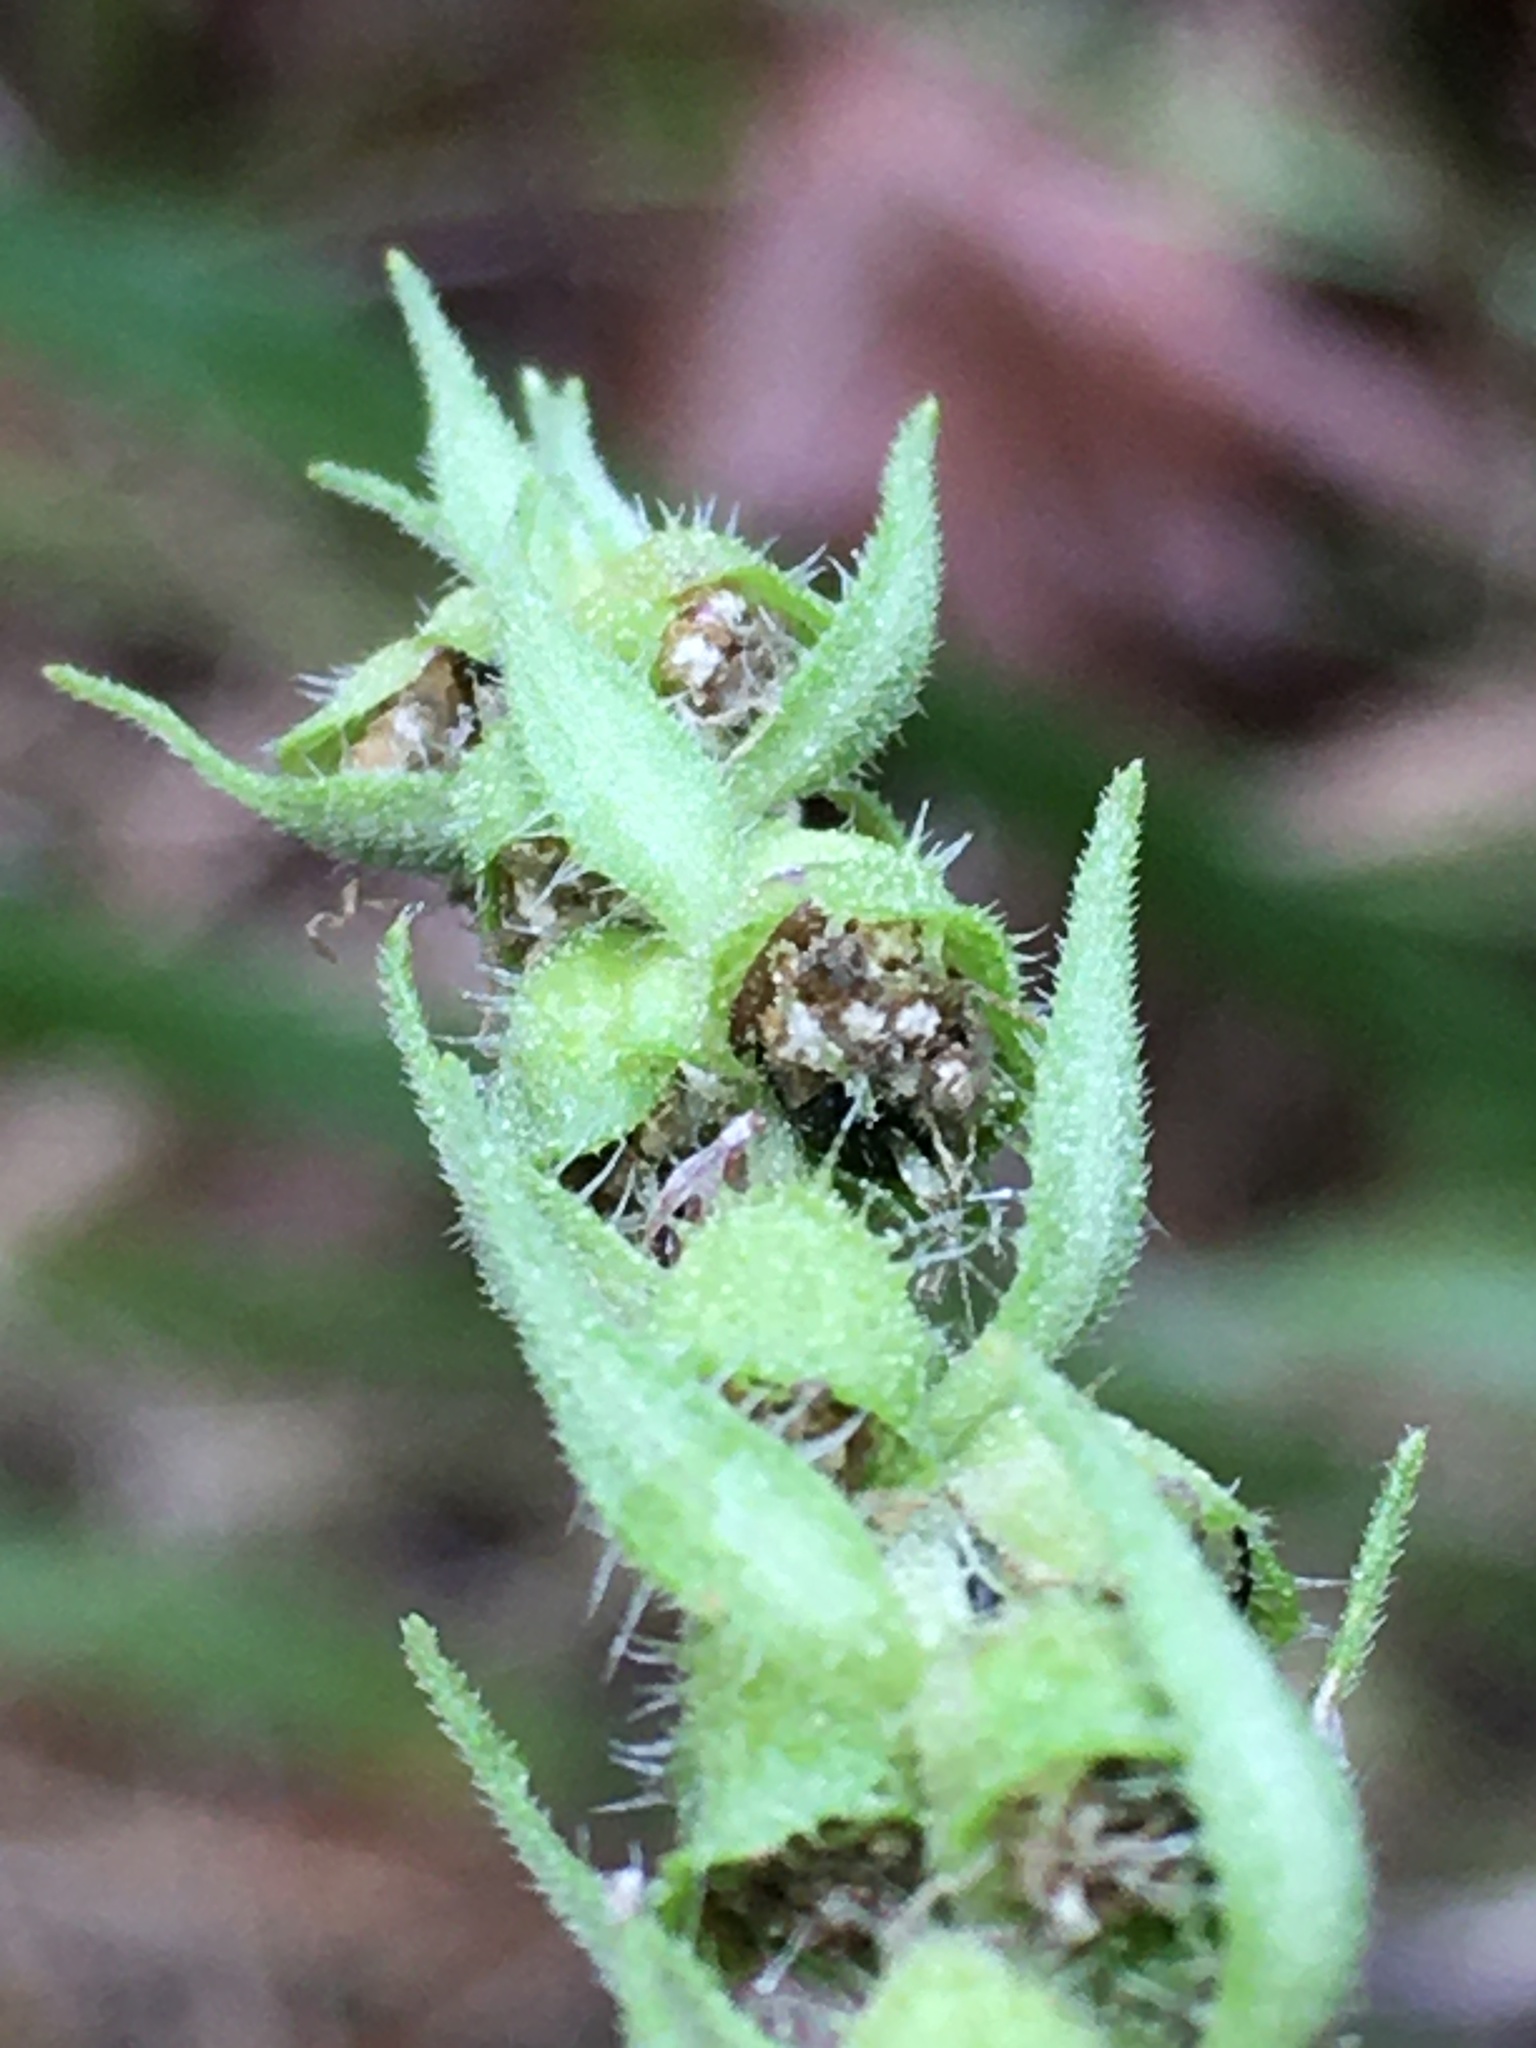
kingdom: Plantae
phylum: Tracheophyta
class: Magnoliopsida
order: Asterales
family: Asteraceae
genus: Iva
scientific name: Iva annua
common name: Marsh-elder
